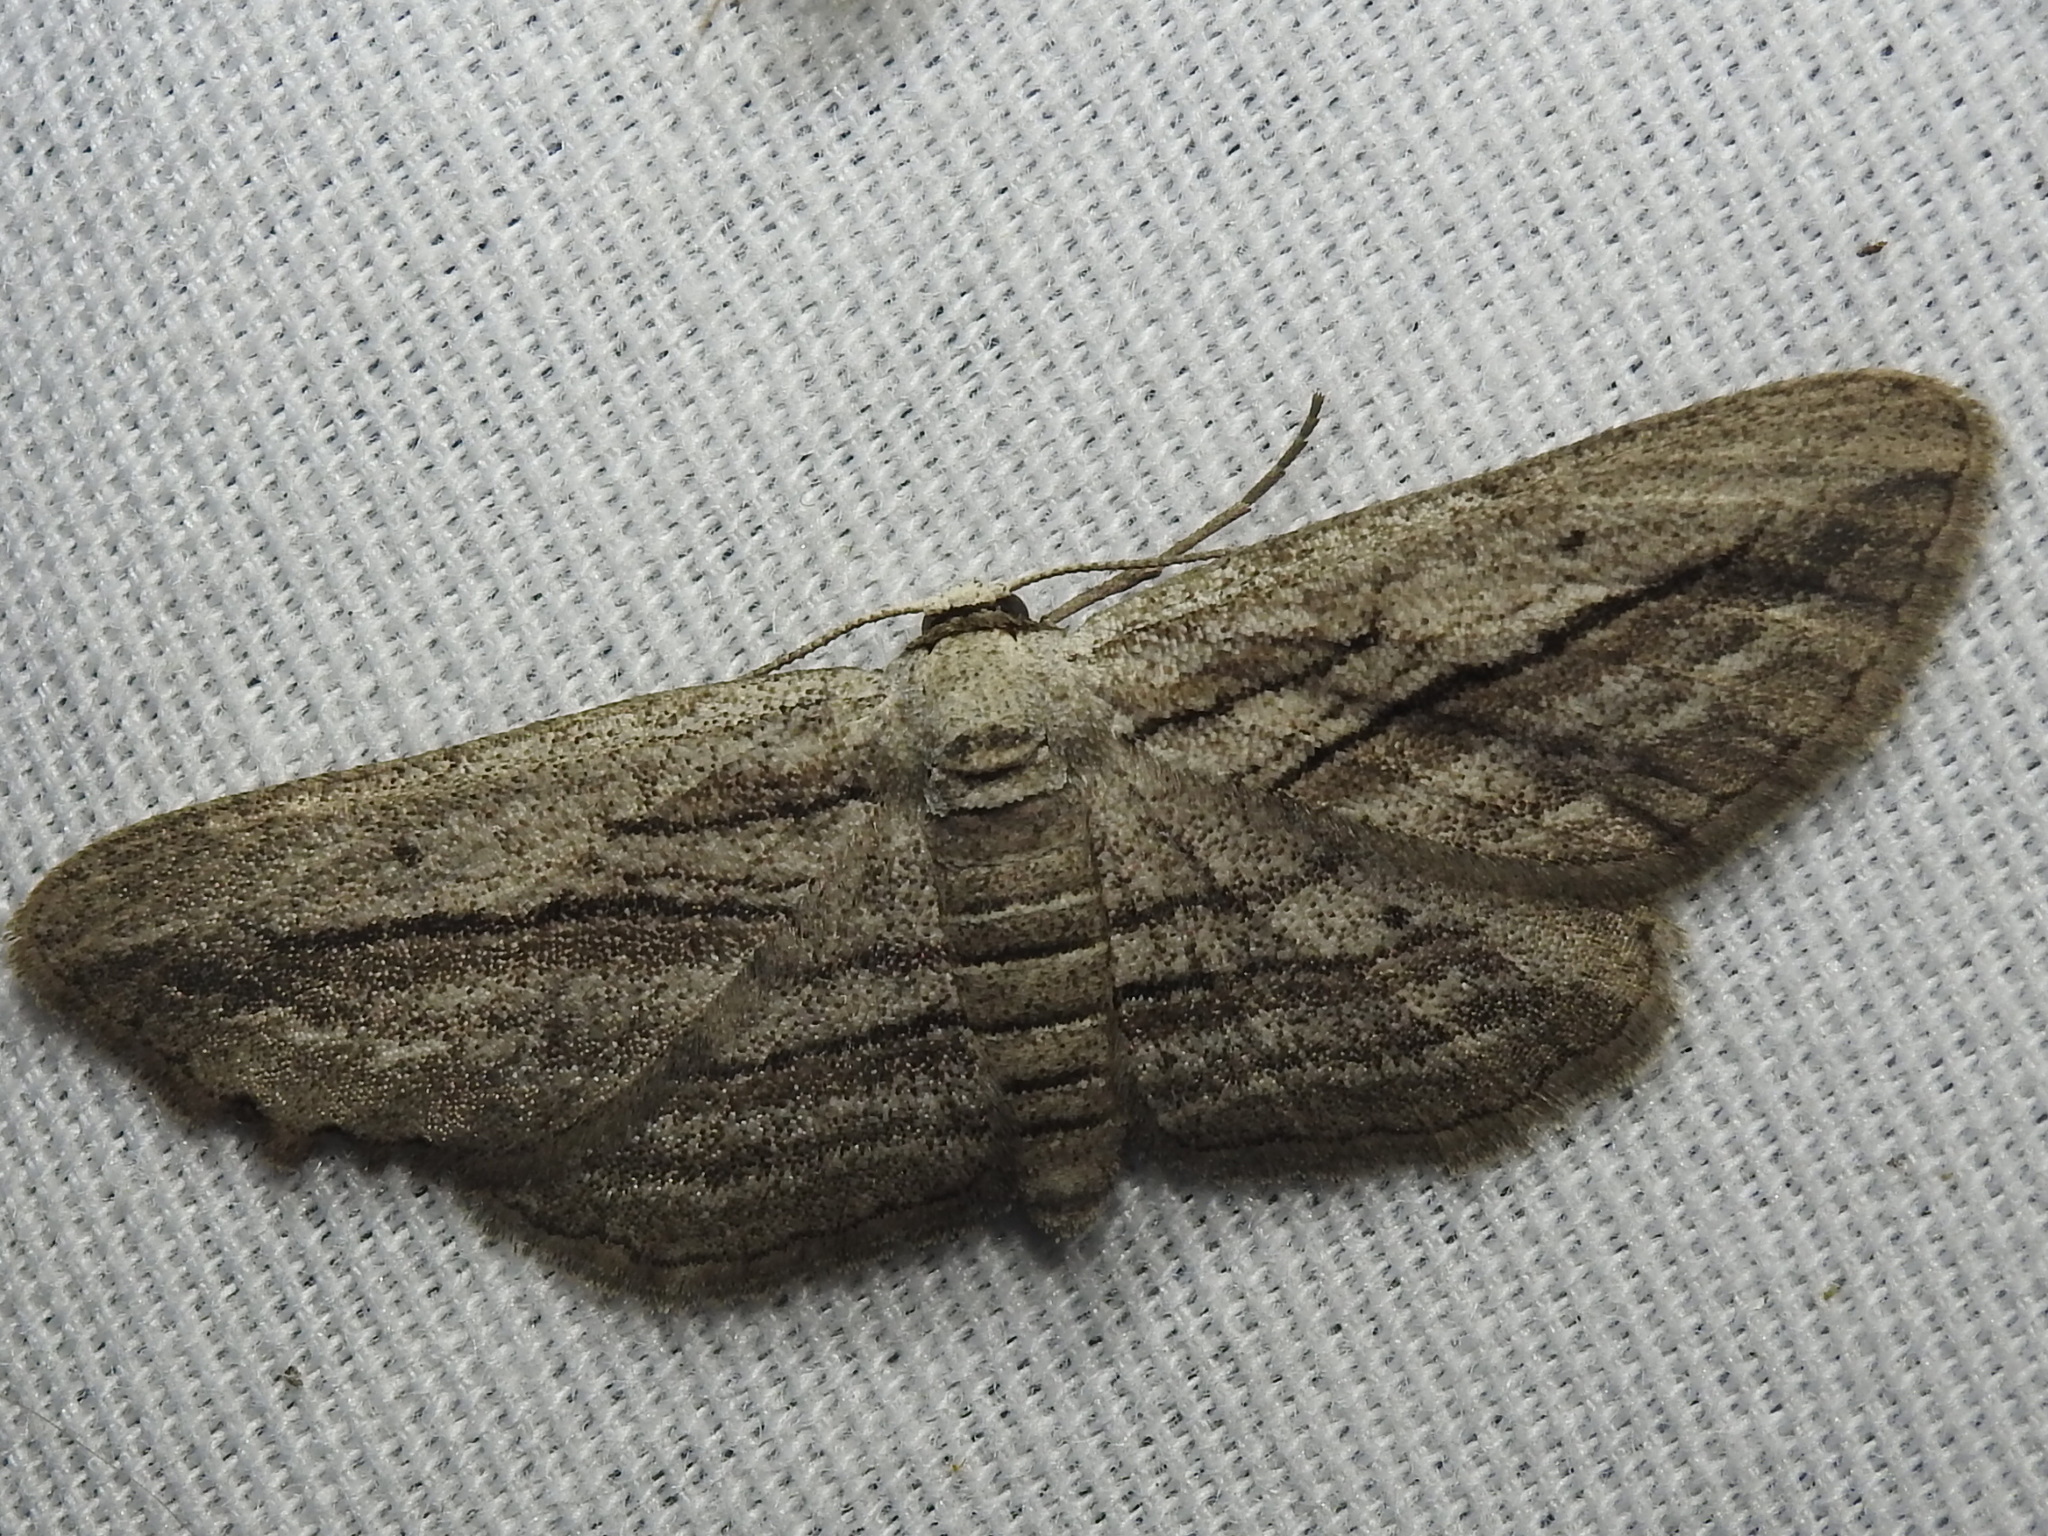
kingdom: Animalia
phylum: Arthropoda
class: Insecta
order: Lepidoptera
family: Geometridae
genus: Glena
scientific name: Glena quinquelinearia
